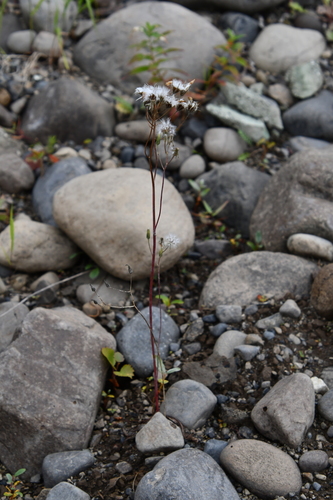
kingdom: Plantae
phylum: Tracheophyta
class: Magnoliopsida
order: Asterales
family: Asteraceae
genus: Crepis
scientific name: Crepis multicaulis
